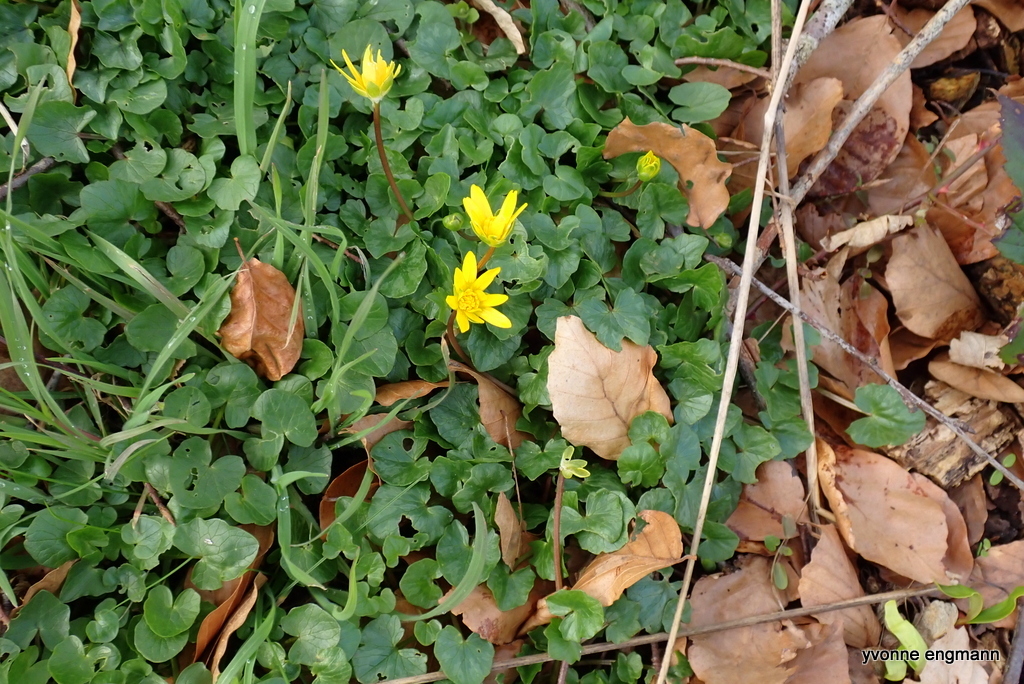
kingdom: Plantae
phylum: Tracheophyta
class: Magnoliopsida
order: Ranunculales
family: Ranunculaceae
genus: Ficaria
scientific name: Ficaria verna
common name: Lesser celandine
